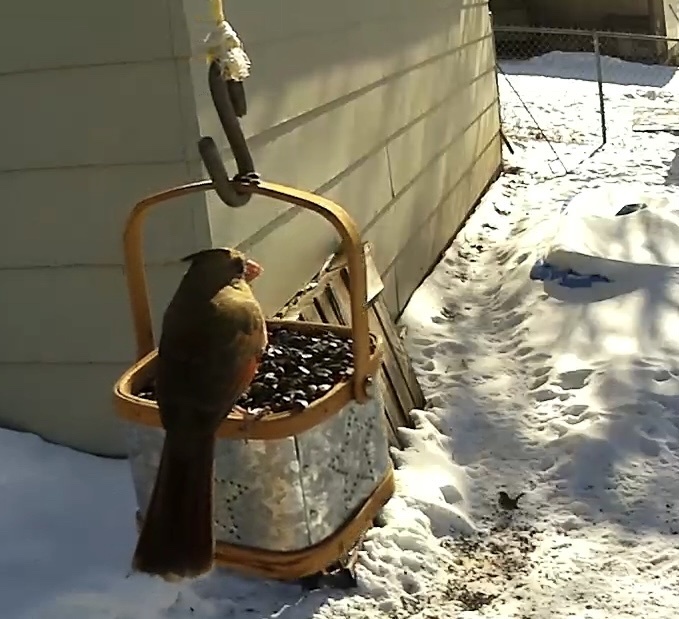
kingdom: Animalia
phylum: Chordata
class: Aves
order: Passeriformes
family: Cardinalidae
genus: Cardinalis
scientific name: Cardinalis cardinalis
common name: Northern cardinal
